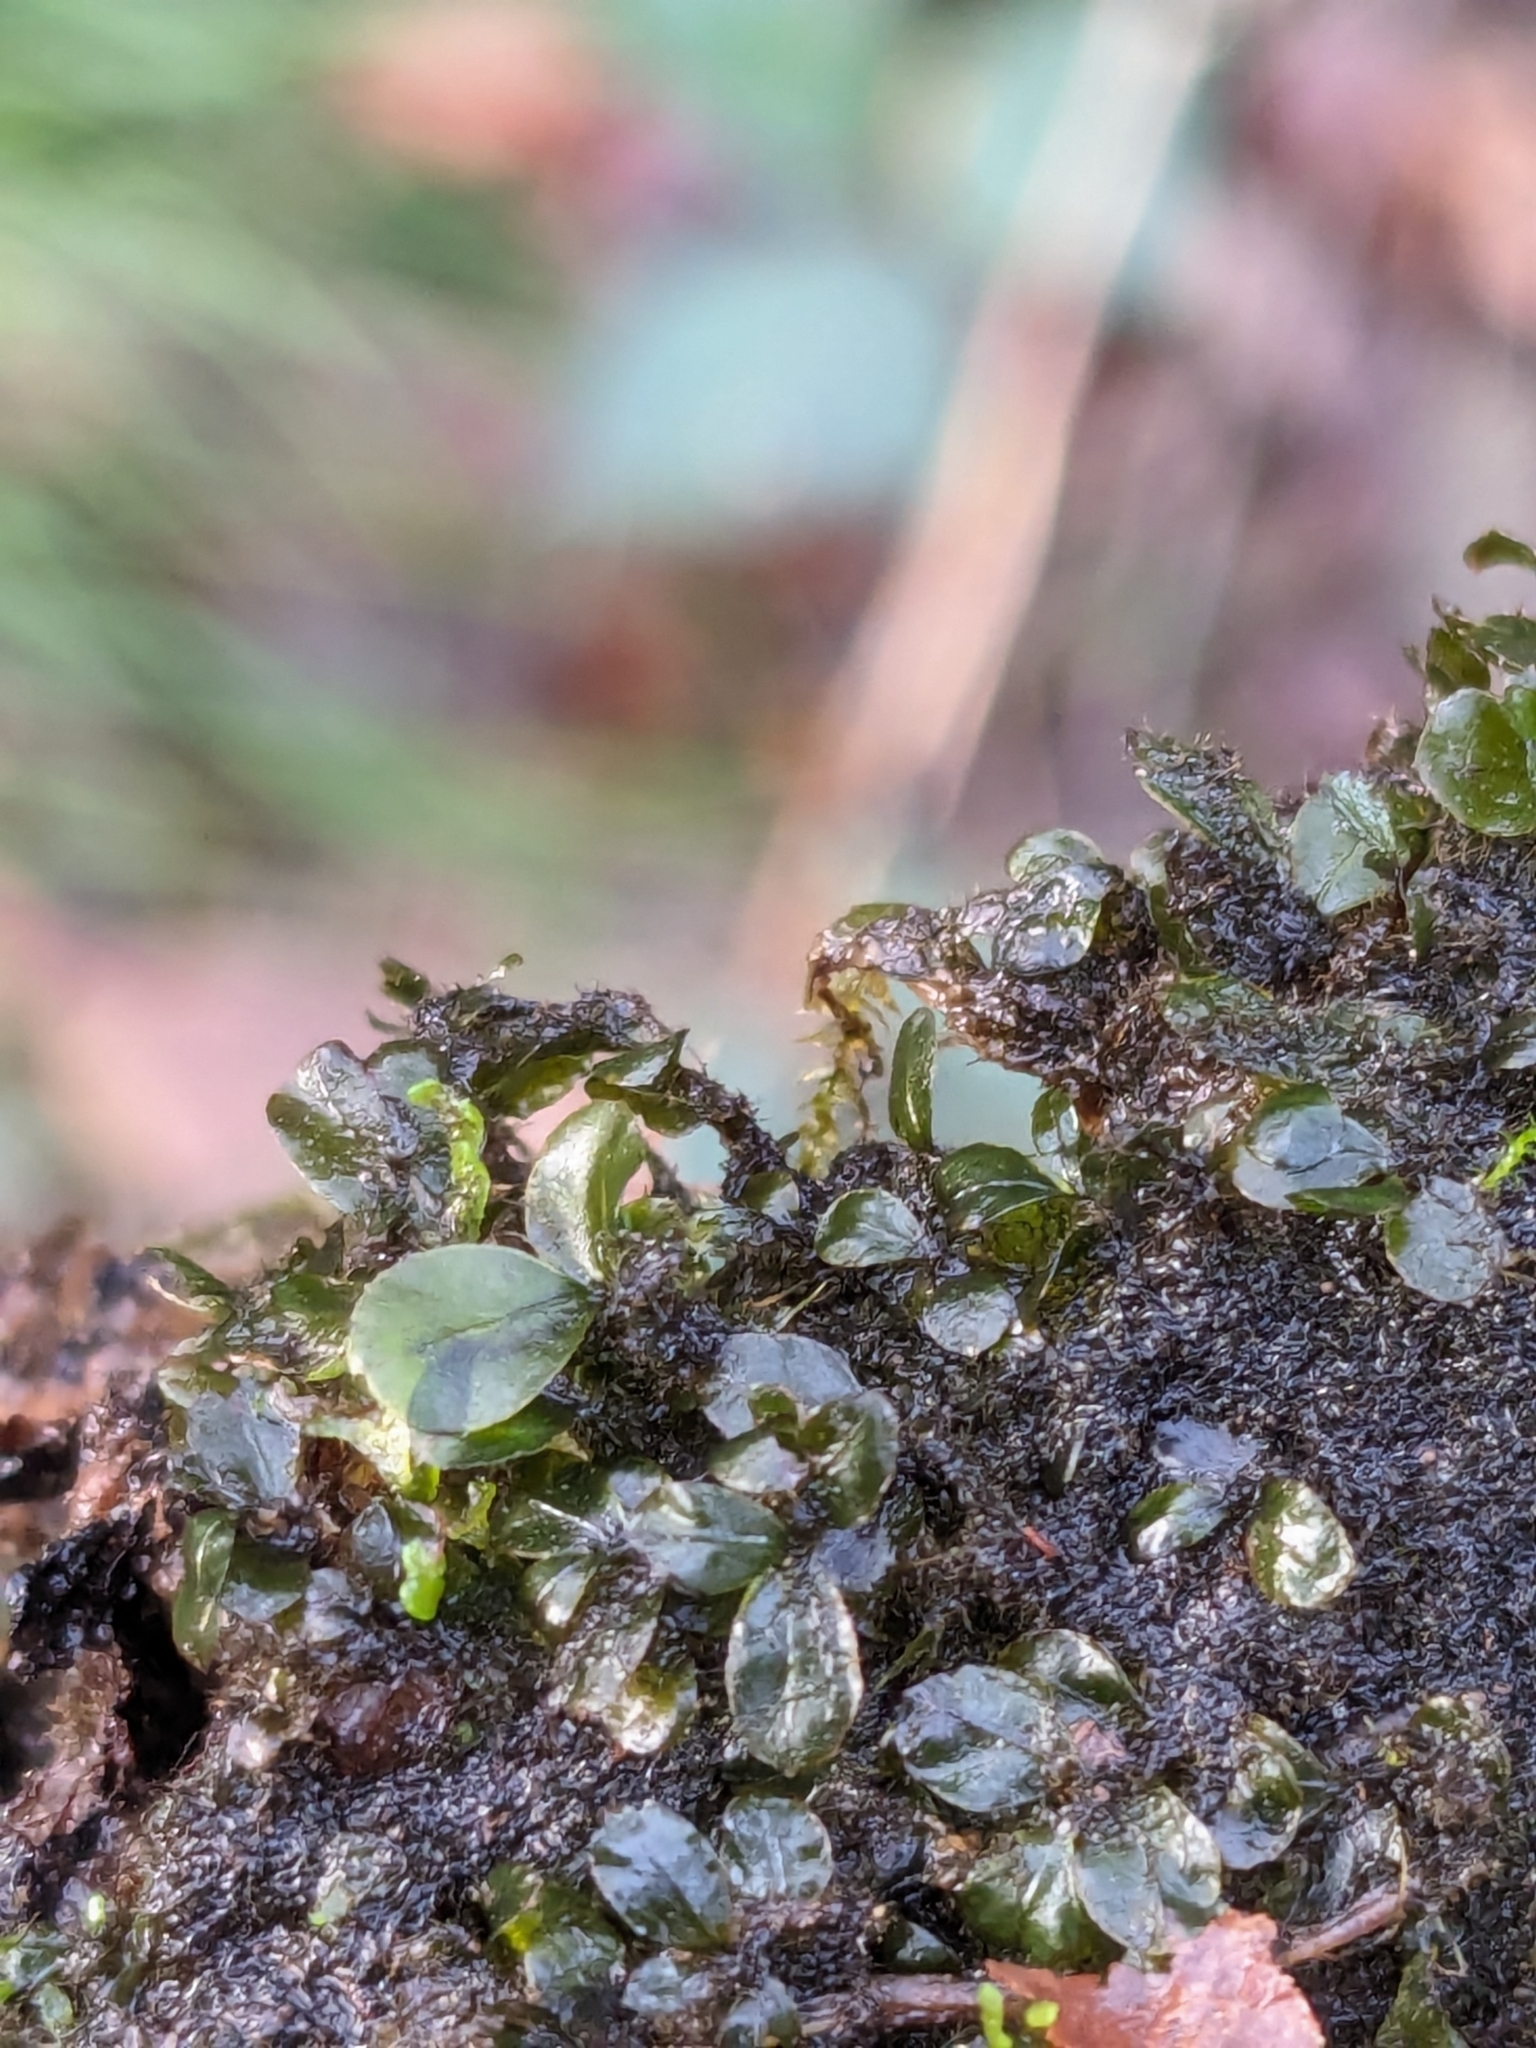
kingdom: Plantae
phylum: Bryophyta
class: Bryopsida
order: Bryales
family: Mniaceae
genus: Rhizomnium
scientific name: Rhizomnium
